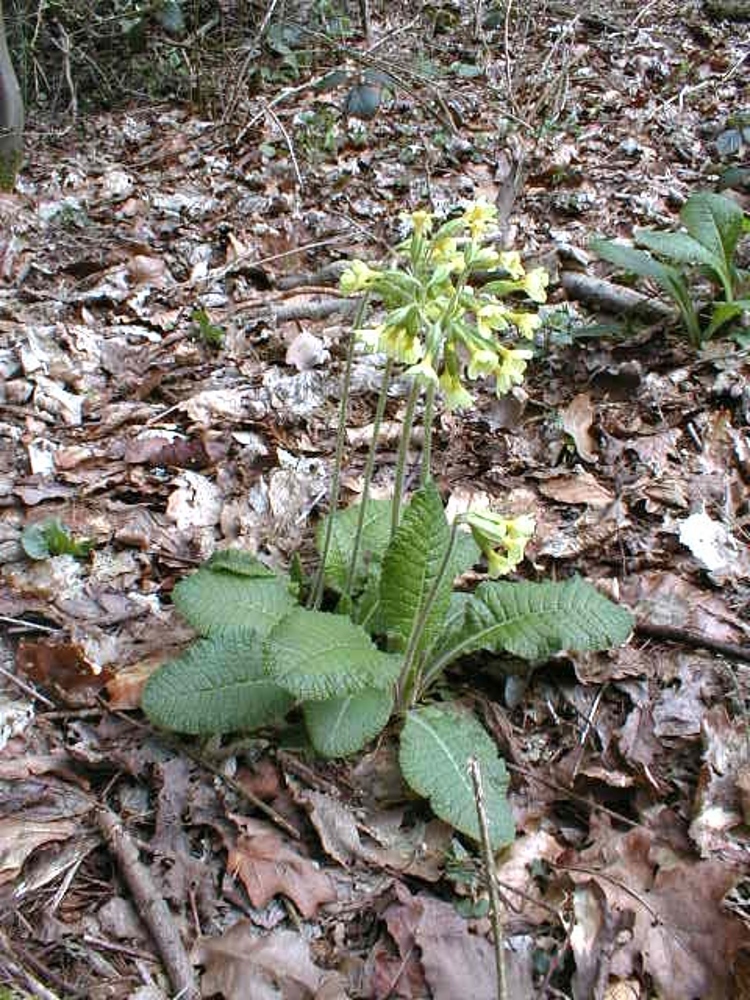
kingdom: Plantae
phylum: Tracheophyta
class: Magnoliopsida
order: Ericales
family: Primulaceae
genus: Primula
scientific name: Primula elatior
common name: Oxlip
